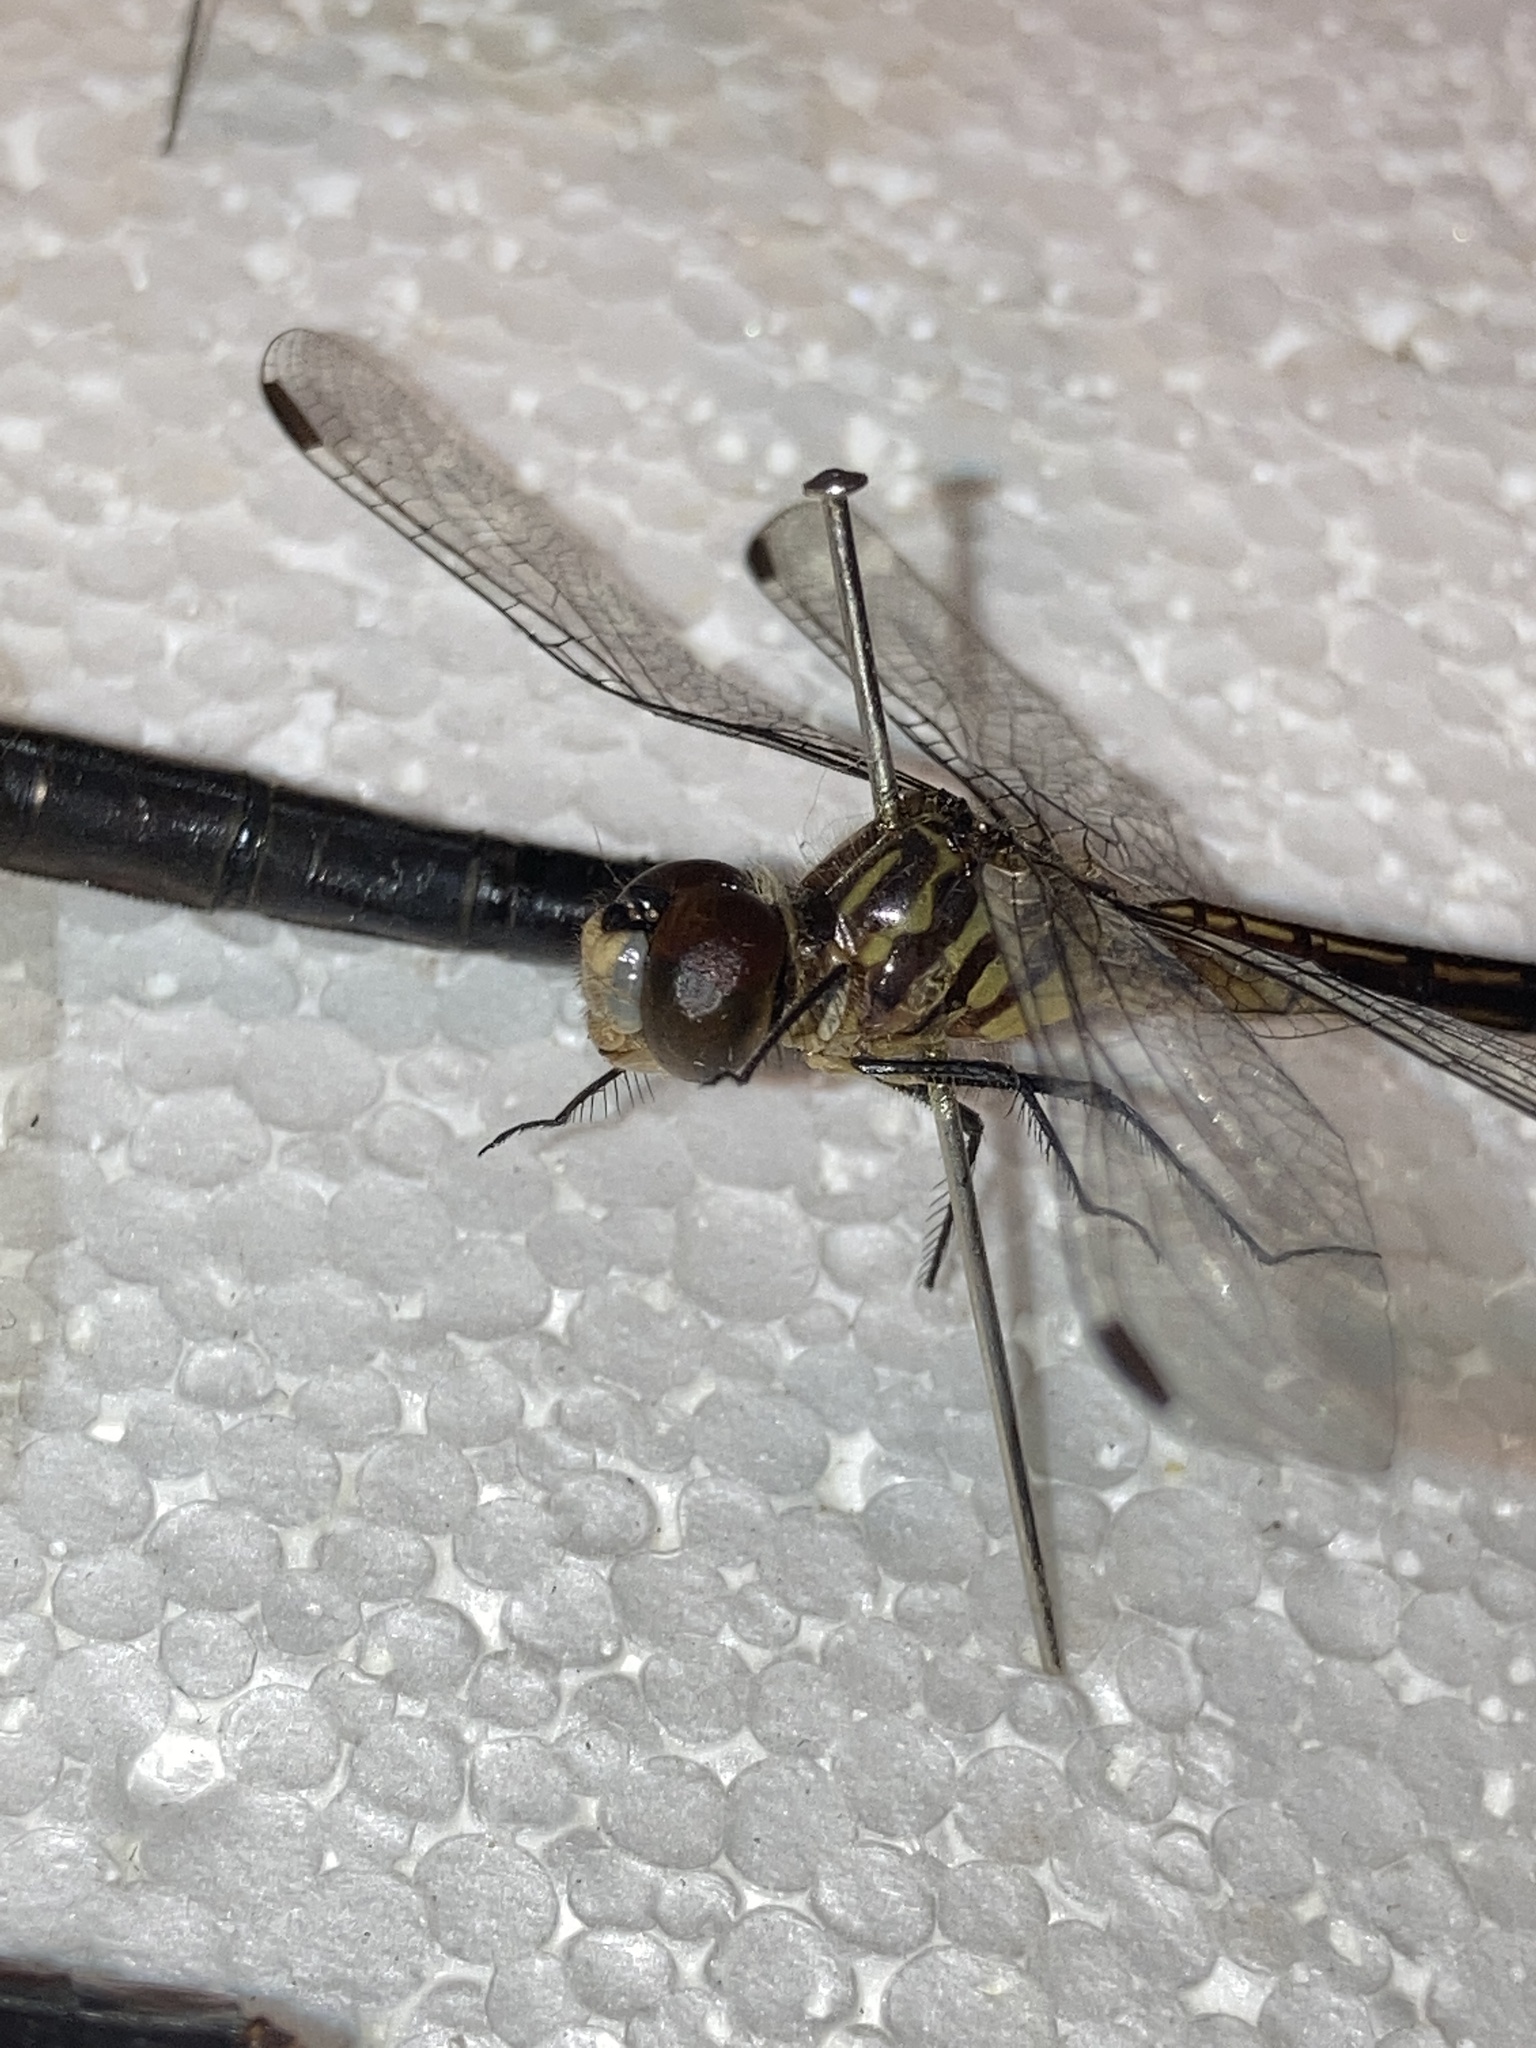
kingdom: Animalia
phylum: Arthropoda
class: Insecta
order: Odonata
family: Libellulidae
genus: Pachydiplax
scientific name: Pachydiplax longipennis
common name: Blue dasher
